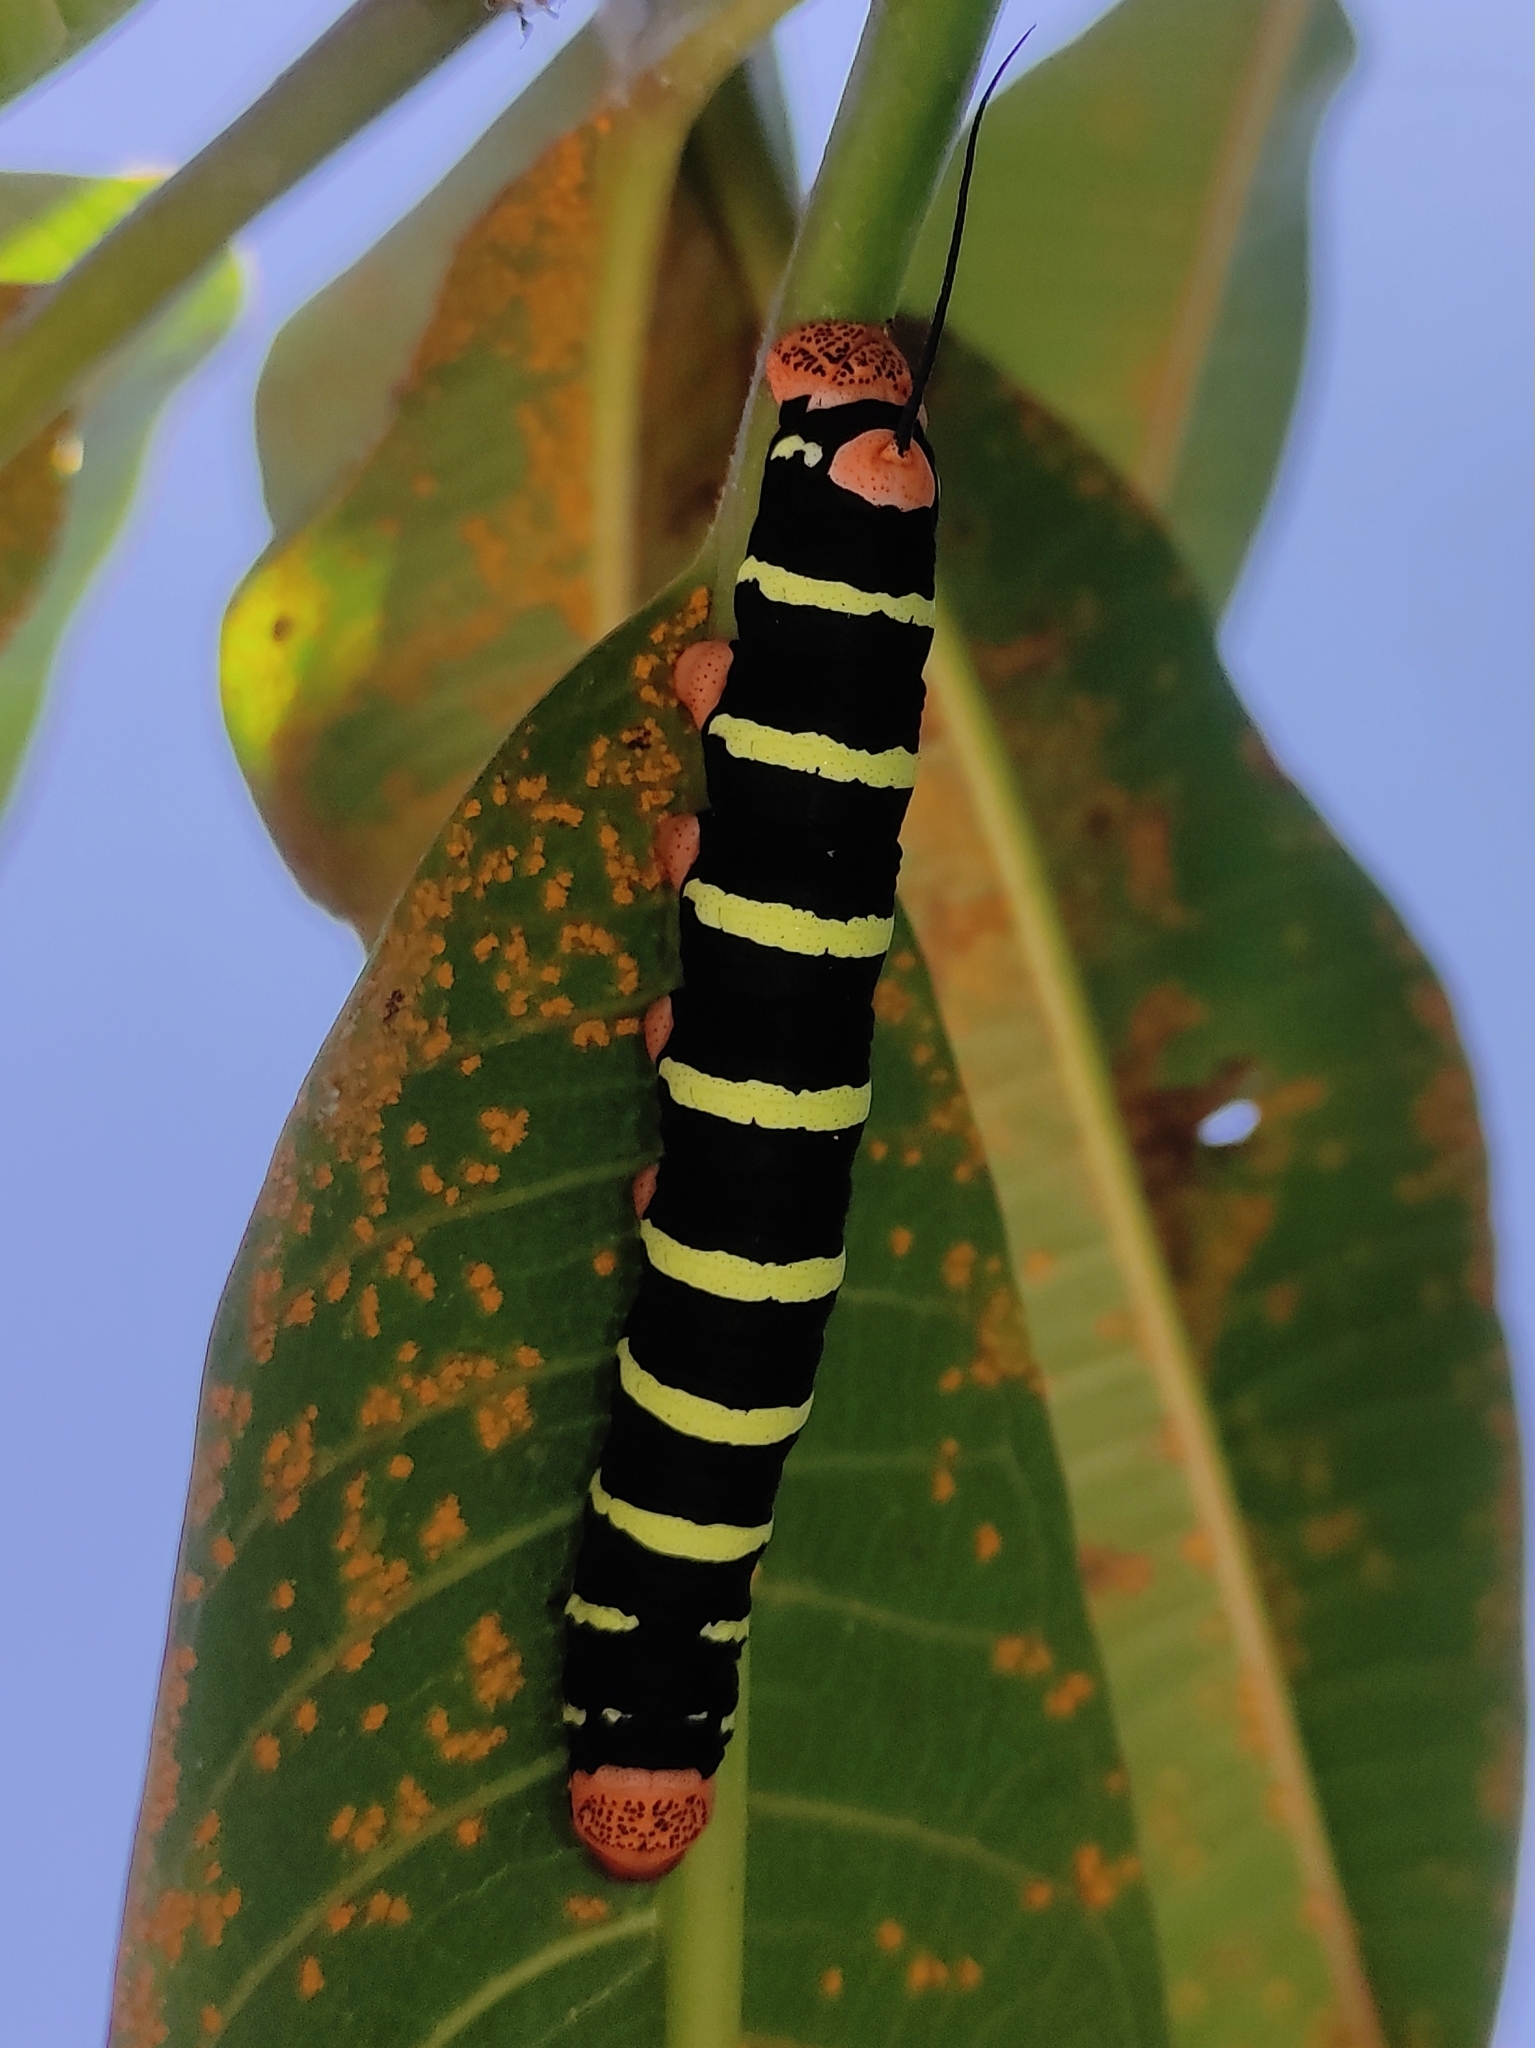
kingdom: Animalia
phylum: Arthropoda
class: Insecta
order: Lepidoptera
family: Sphingidae
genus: Pseudosphinx
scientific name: Pseudosphinx tetrio
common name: Tetrio sphinx
